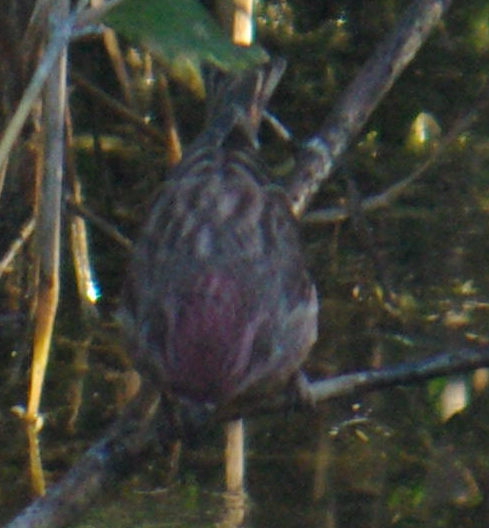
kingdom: Animalia
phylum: Chordata
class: Aves
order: Passeriformes
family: Fringillidae
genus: Haemorhous
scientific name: Haemorhous purpureus
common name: Purple finch
